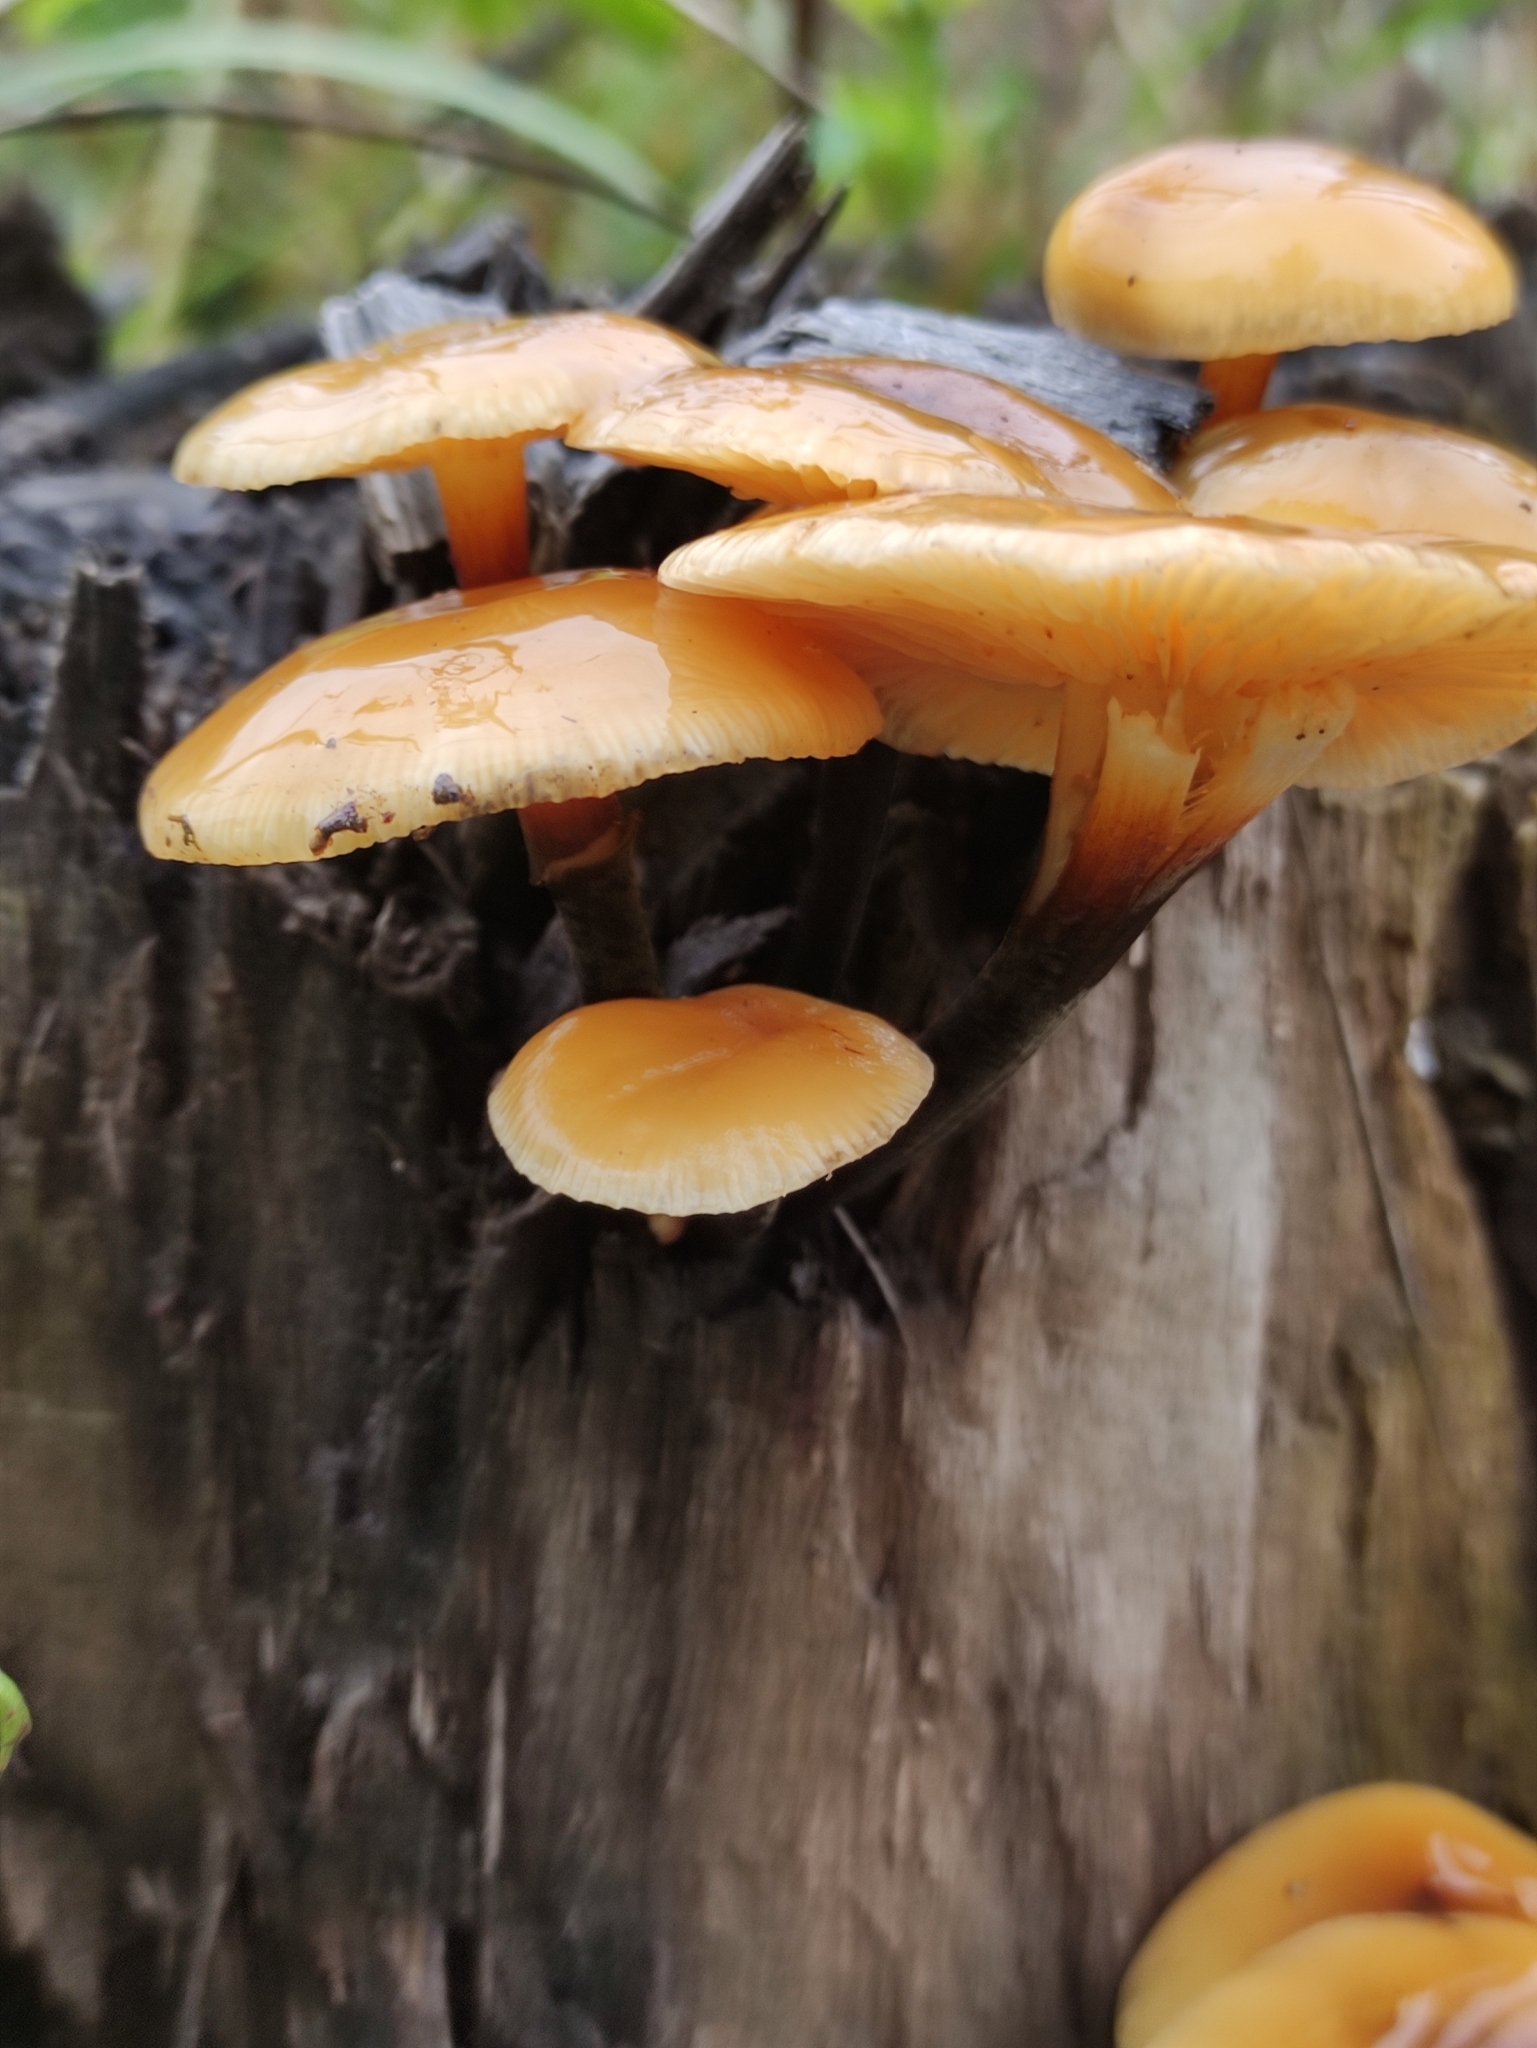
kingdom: Fungi
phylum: Basidiomycota
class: Agaricomycetes
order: Agaricales
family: Physalacriaceae
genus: Flammulina
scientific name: Flammulina
